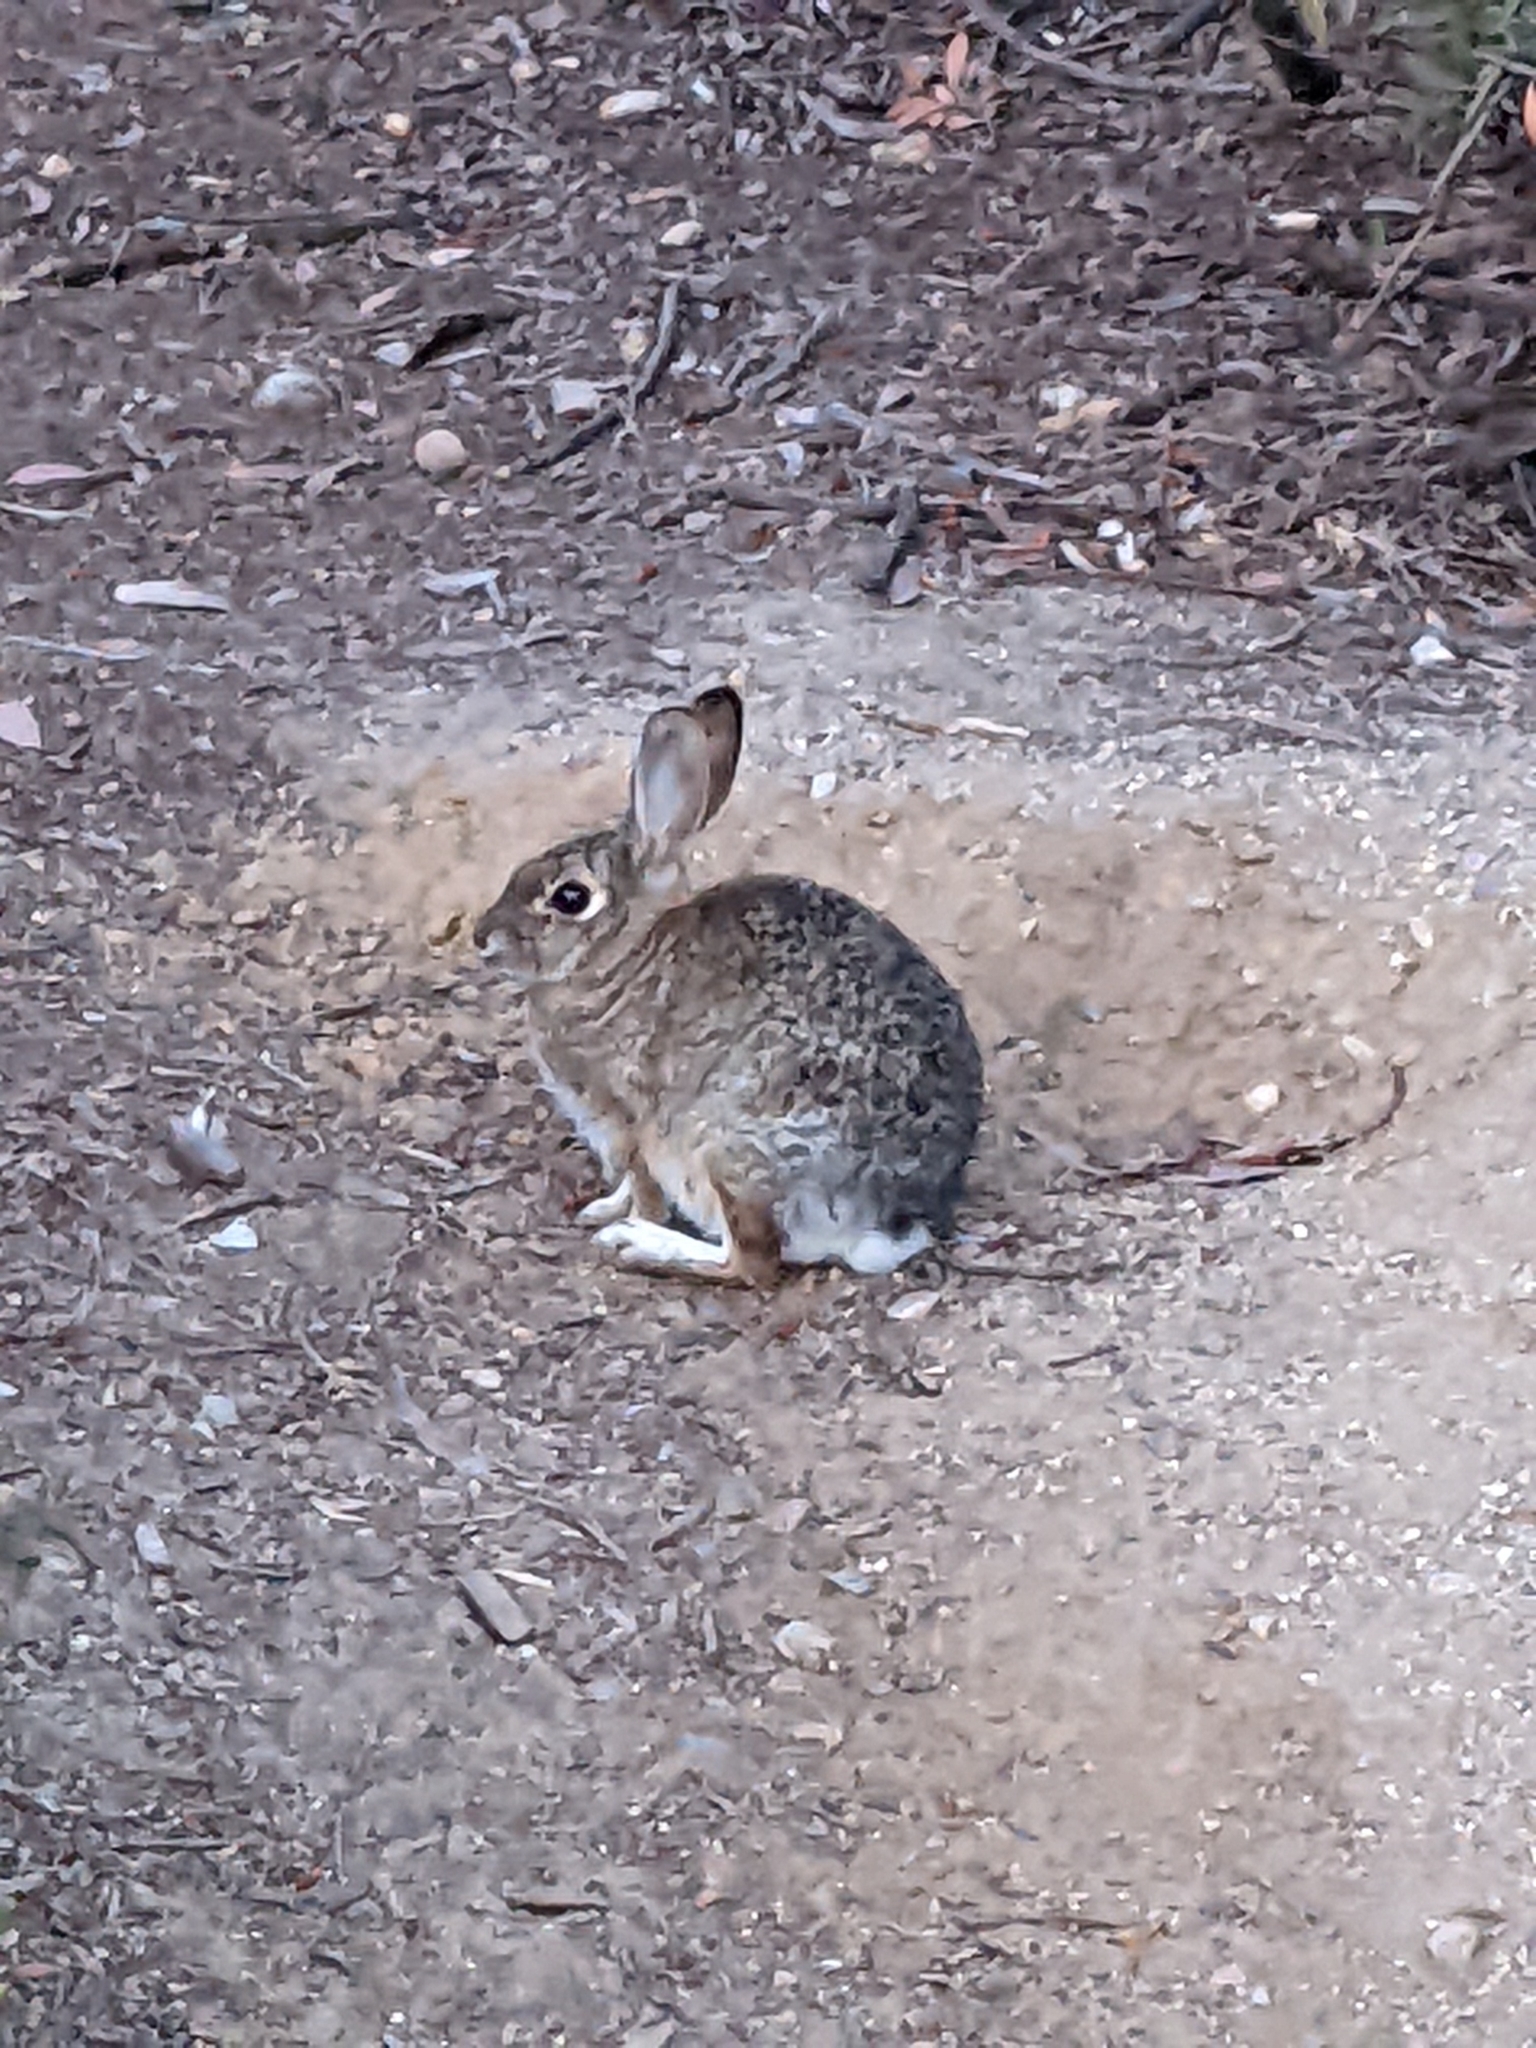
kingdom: Animalia
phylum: Chordata
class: Mammalia
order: Lagomorpha
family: Leporidae
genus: Sylvilagus
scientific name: Sylvilagus audubonii
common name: Desert cottontail
